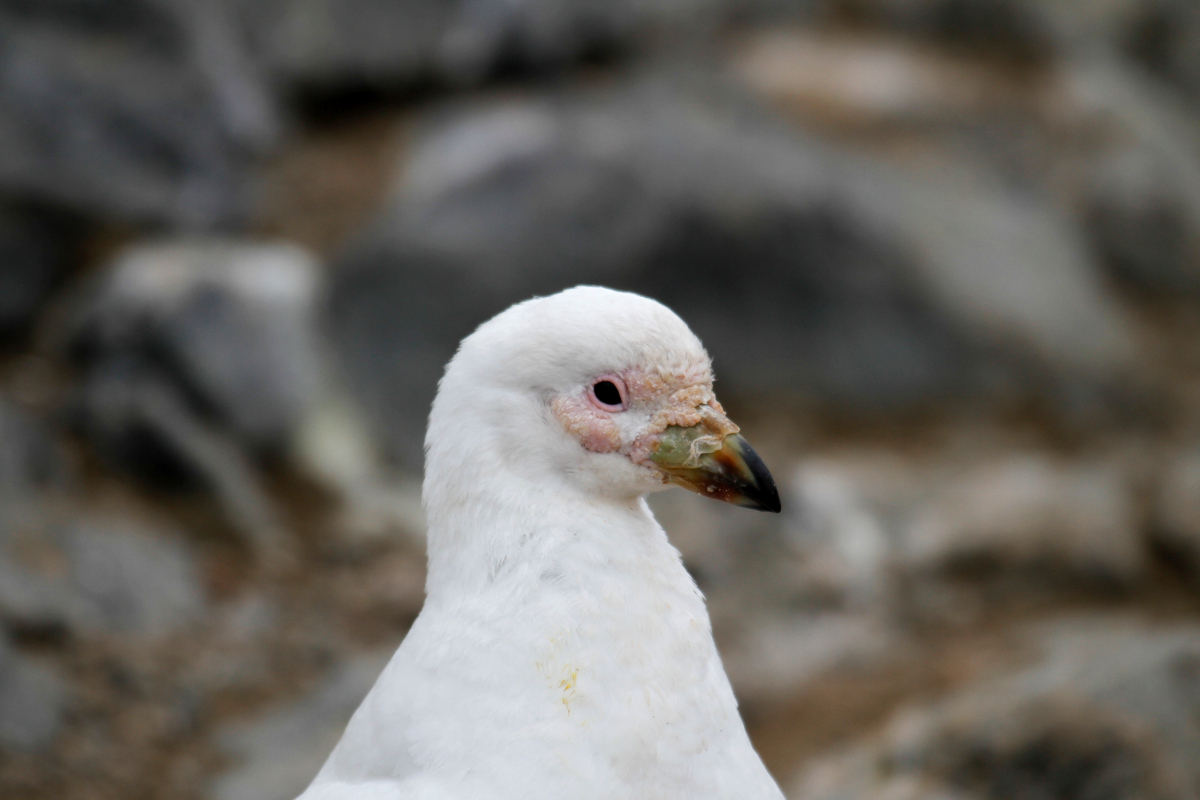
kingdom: Animalia
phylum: Chordata
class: Aves
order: Charadriiformes
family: Chionidae
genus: Chionis
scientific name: Chionis albus
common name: Snowy sheathbill
